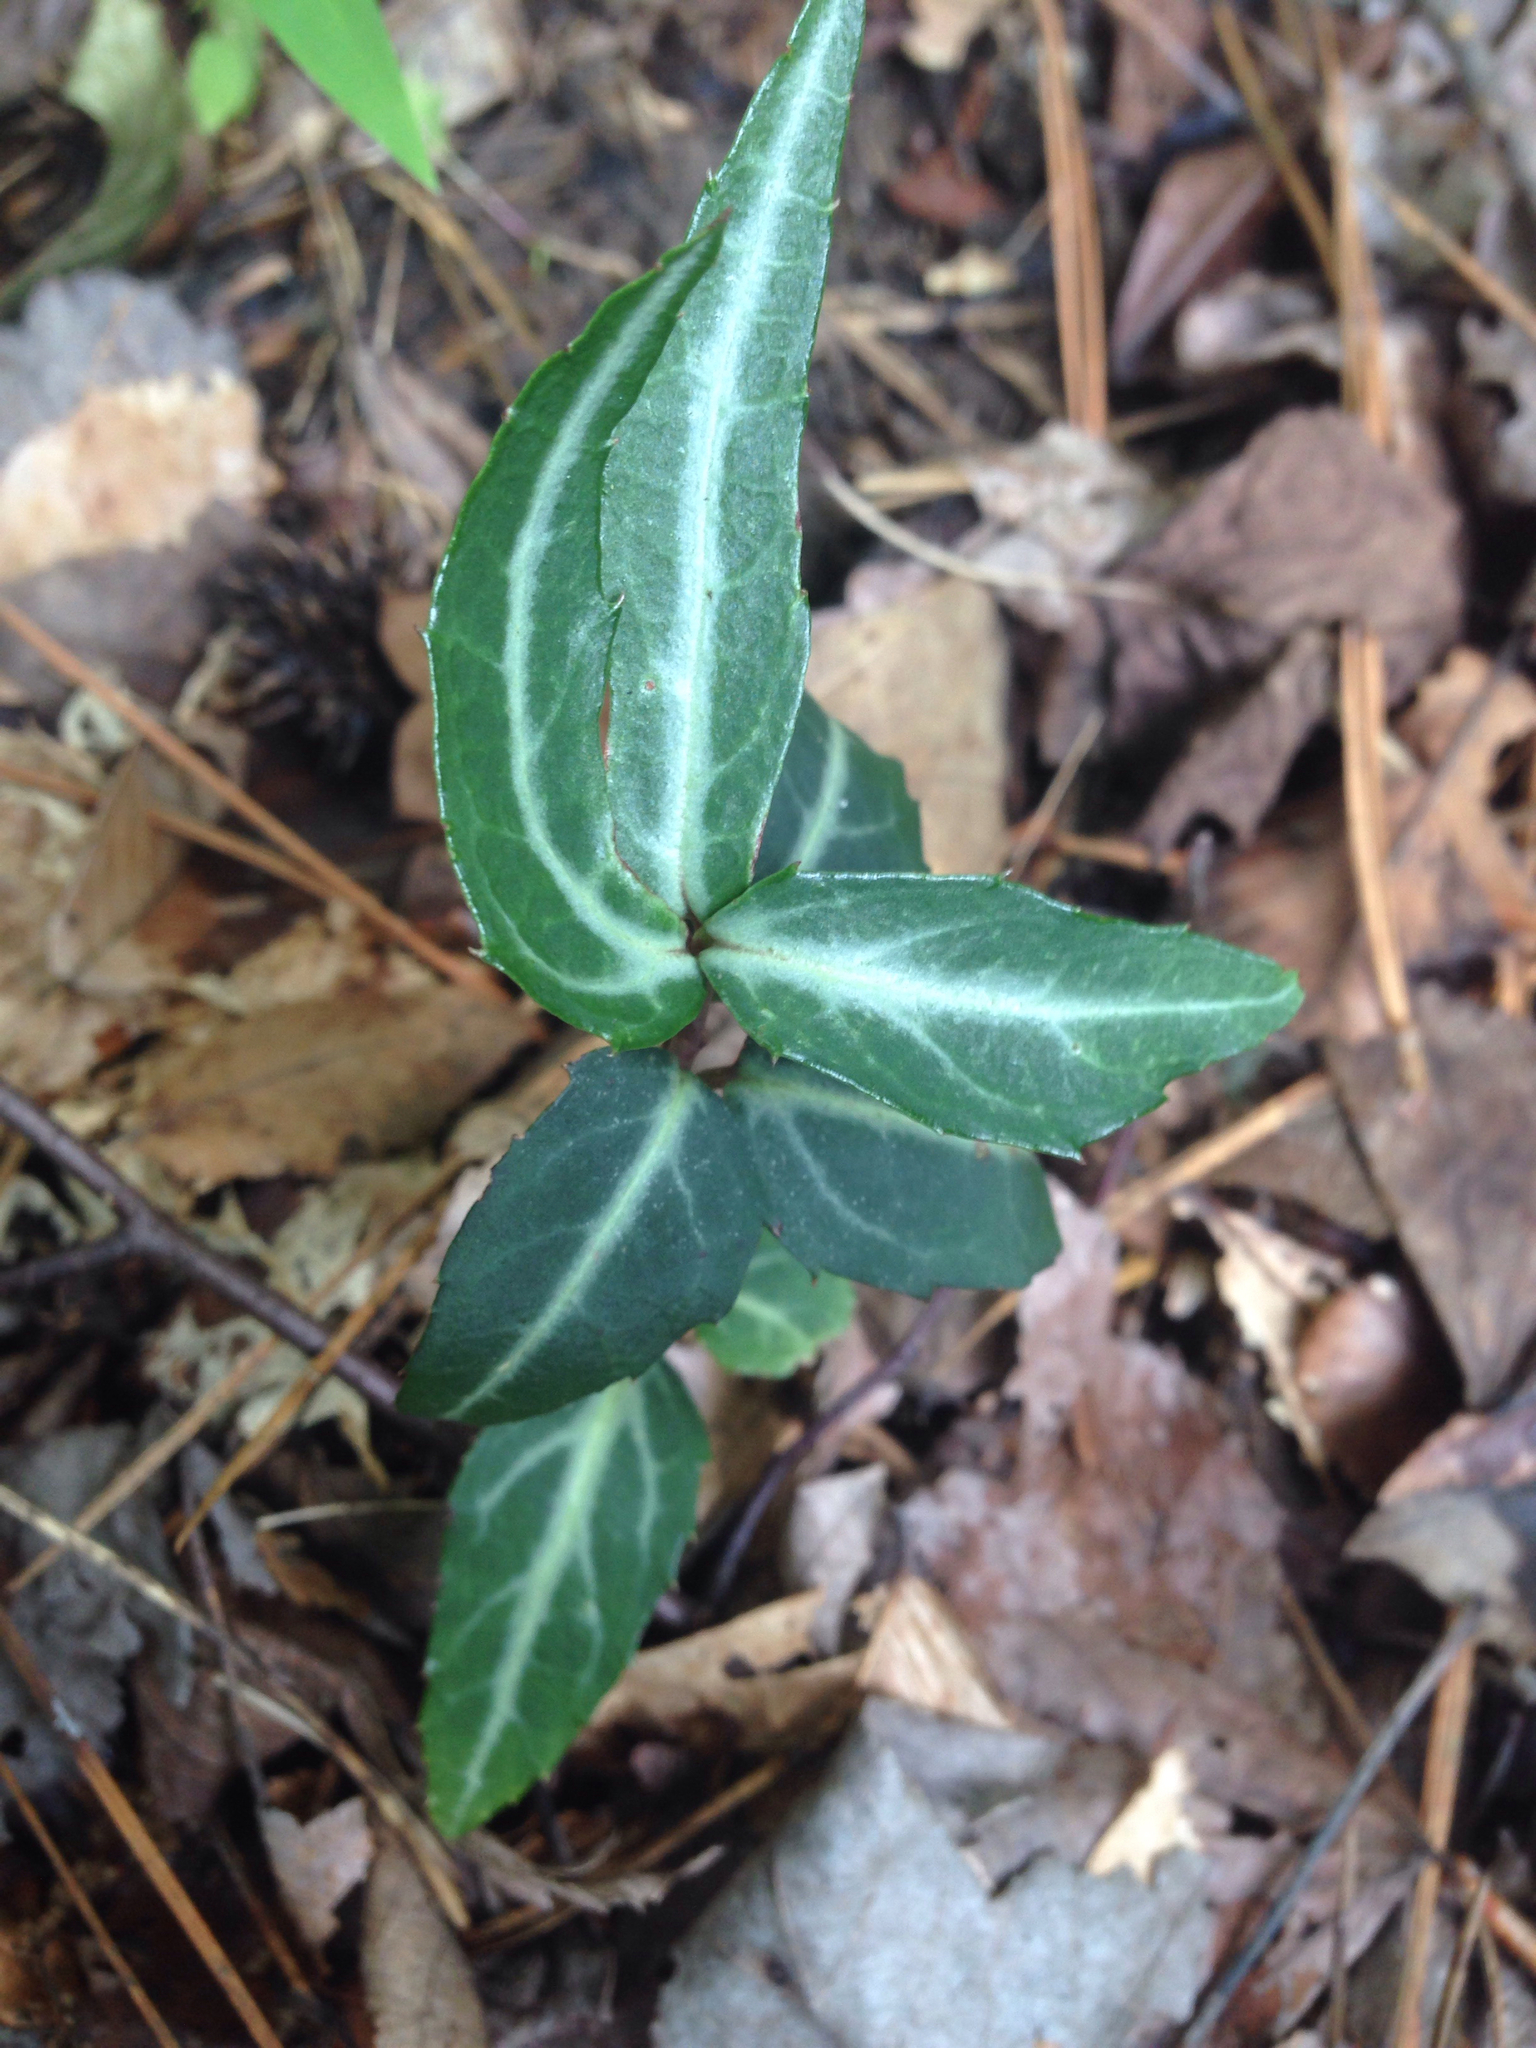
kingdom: Plantae
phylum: Tracheophyta
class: Magnoliopsida
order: Ericales
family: Ericaceae
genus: Chimaphila
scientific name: Chimaphila maculata
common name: Spotted pipsissewa
